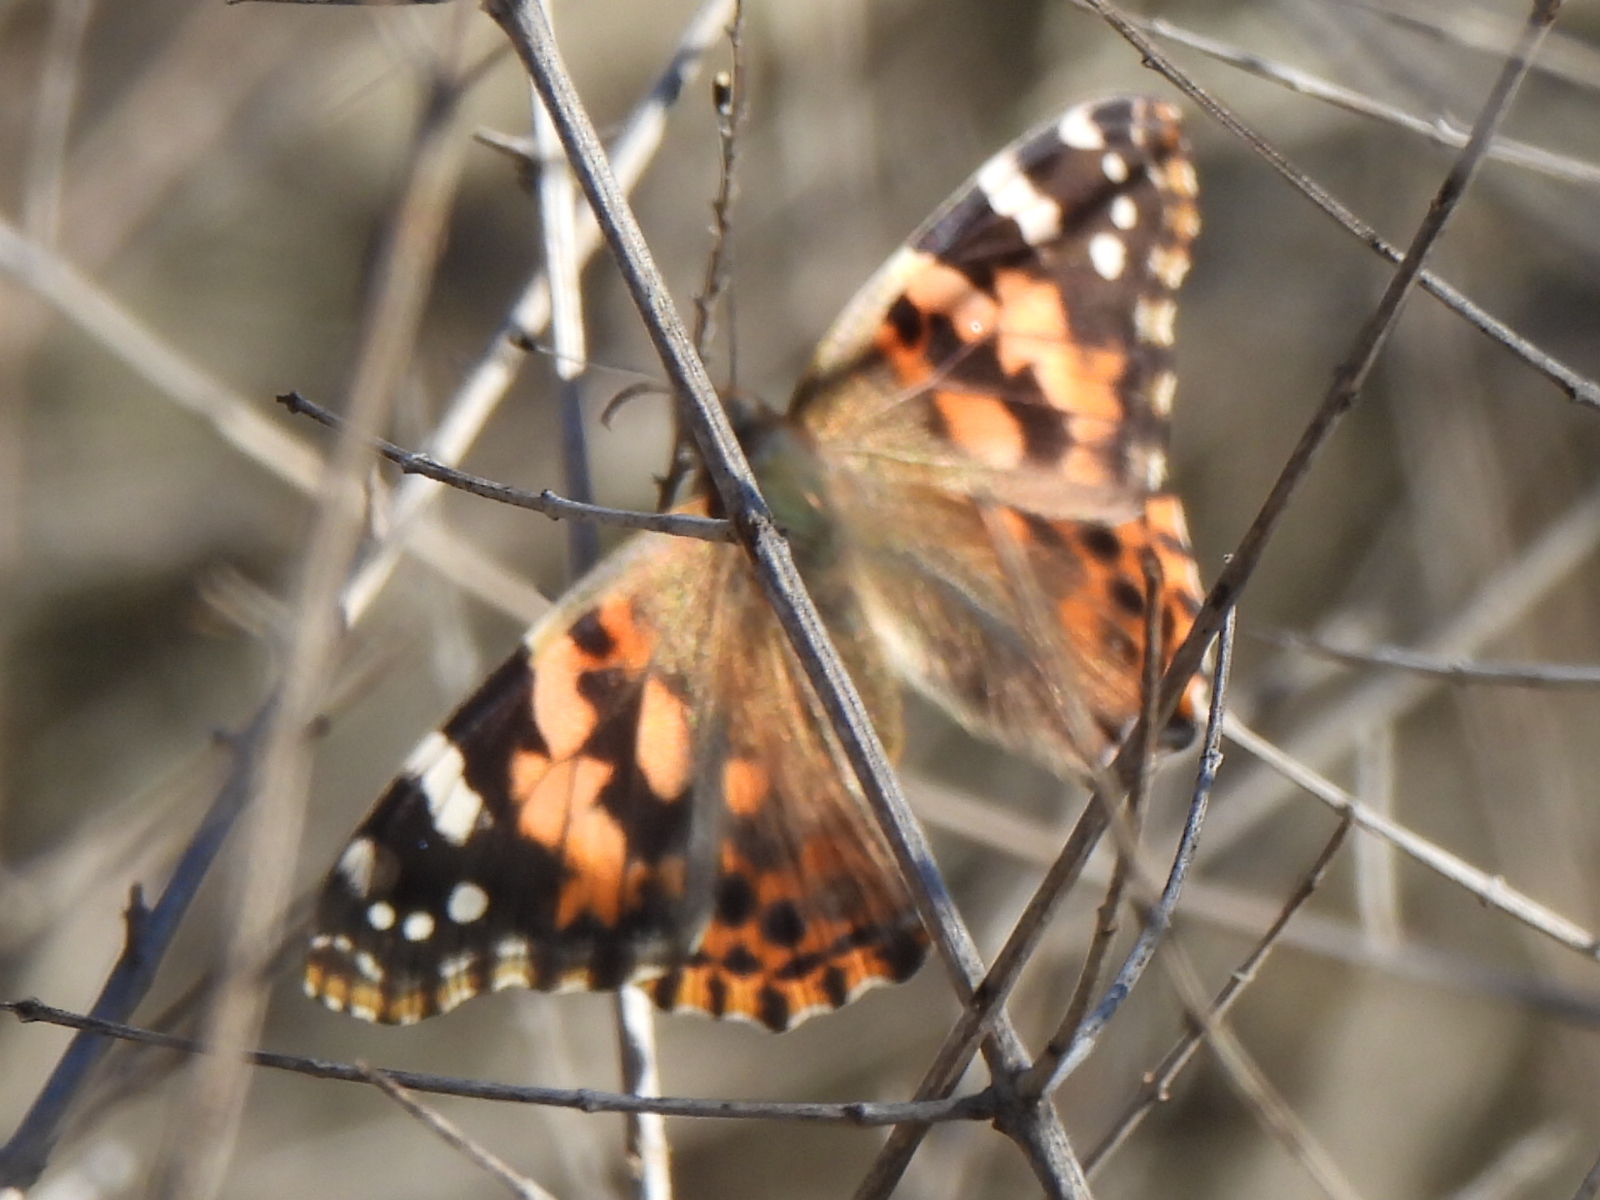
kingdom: Animalia
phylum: Arthropoda
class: Insecta
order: Lepidoptera
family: Nymphalidae
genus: Vanessa
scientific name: Vanessa cardui
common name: Painted lady
